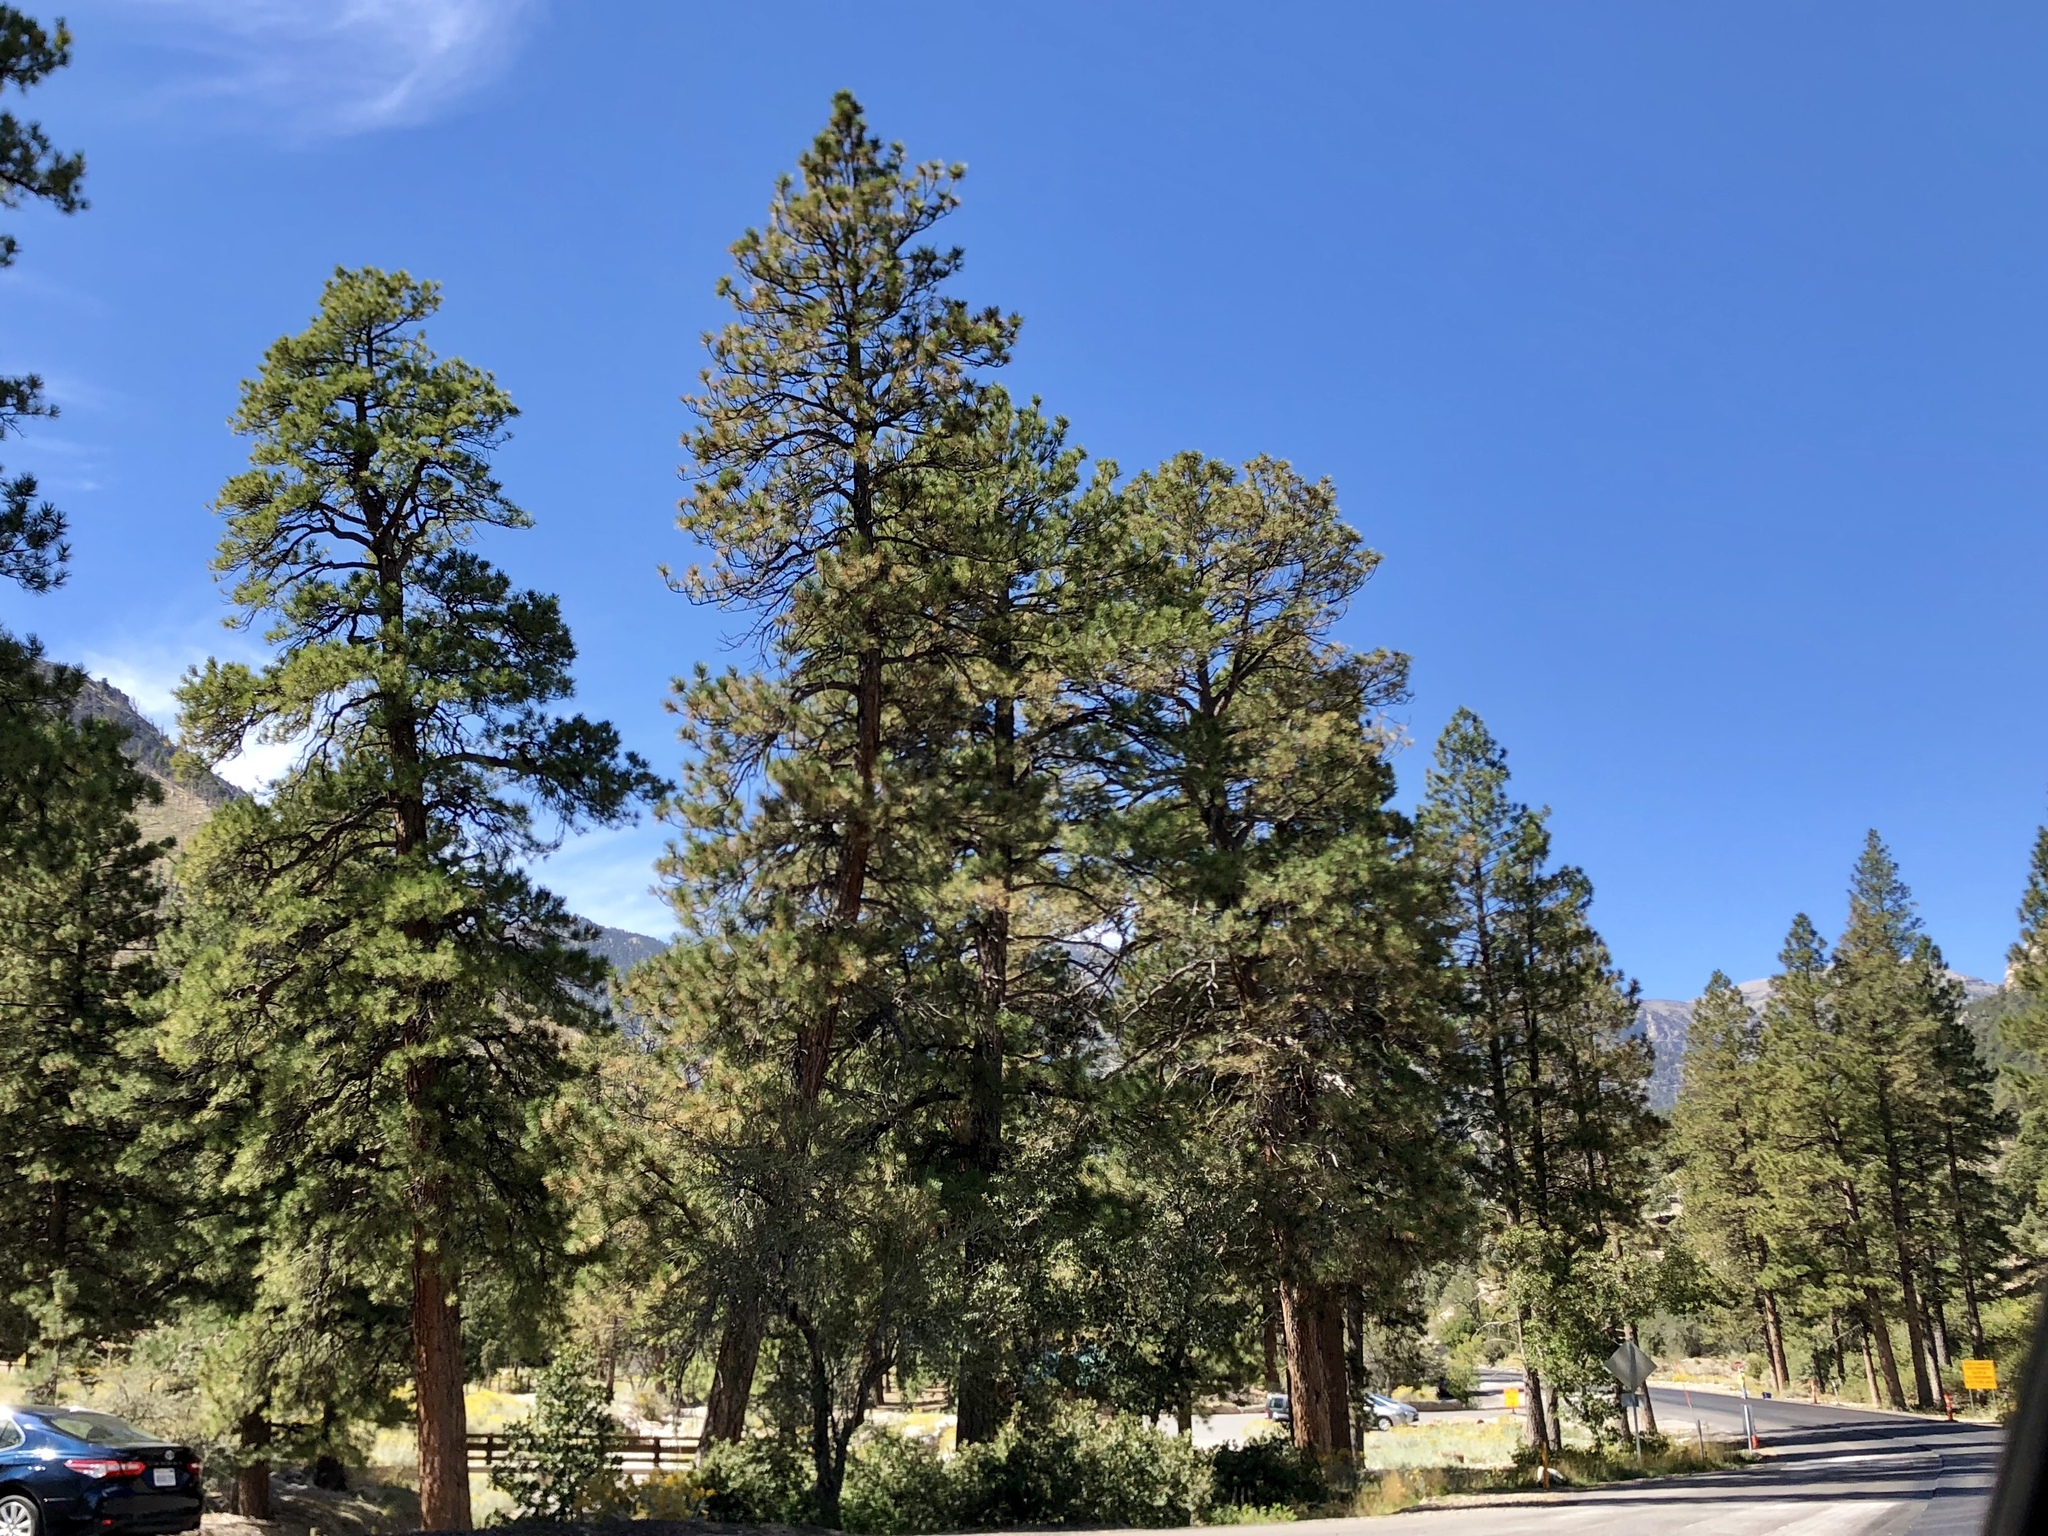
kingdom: Plantae
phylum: Tracheophyta
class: Pinopsida
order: Pinales
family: Pinaceae
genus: Pinus
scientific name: Pinus ponderosa
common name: Western yellow-pine
